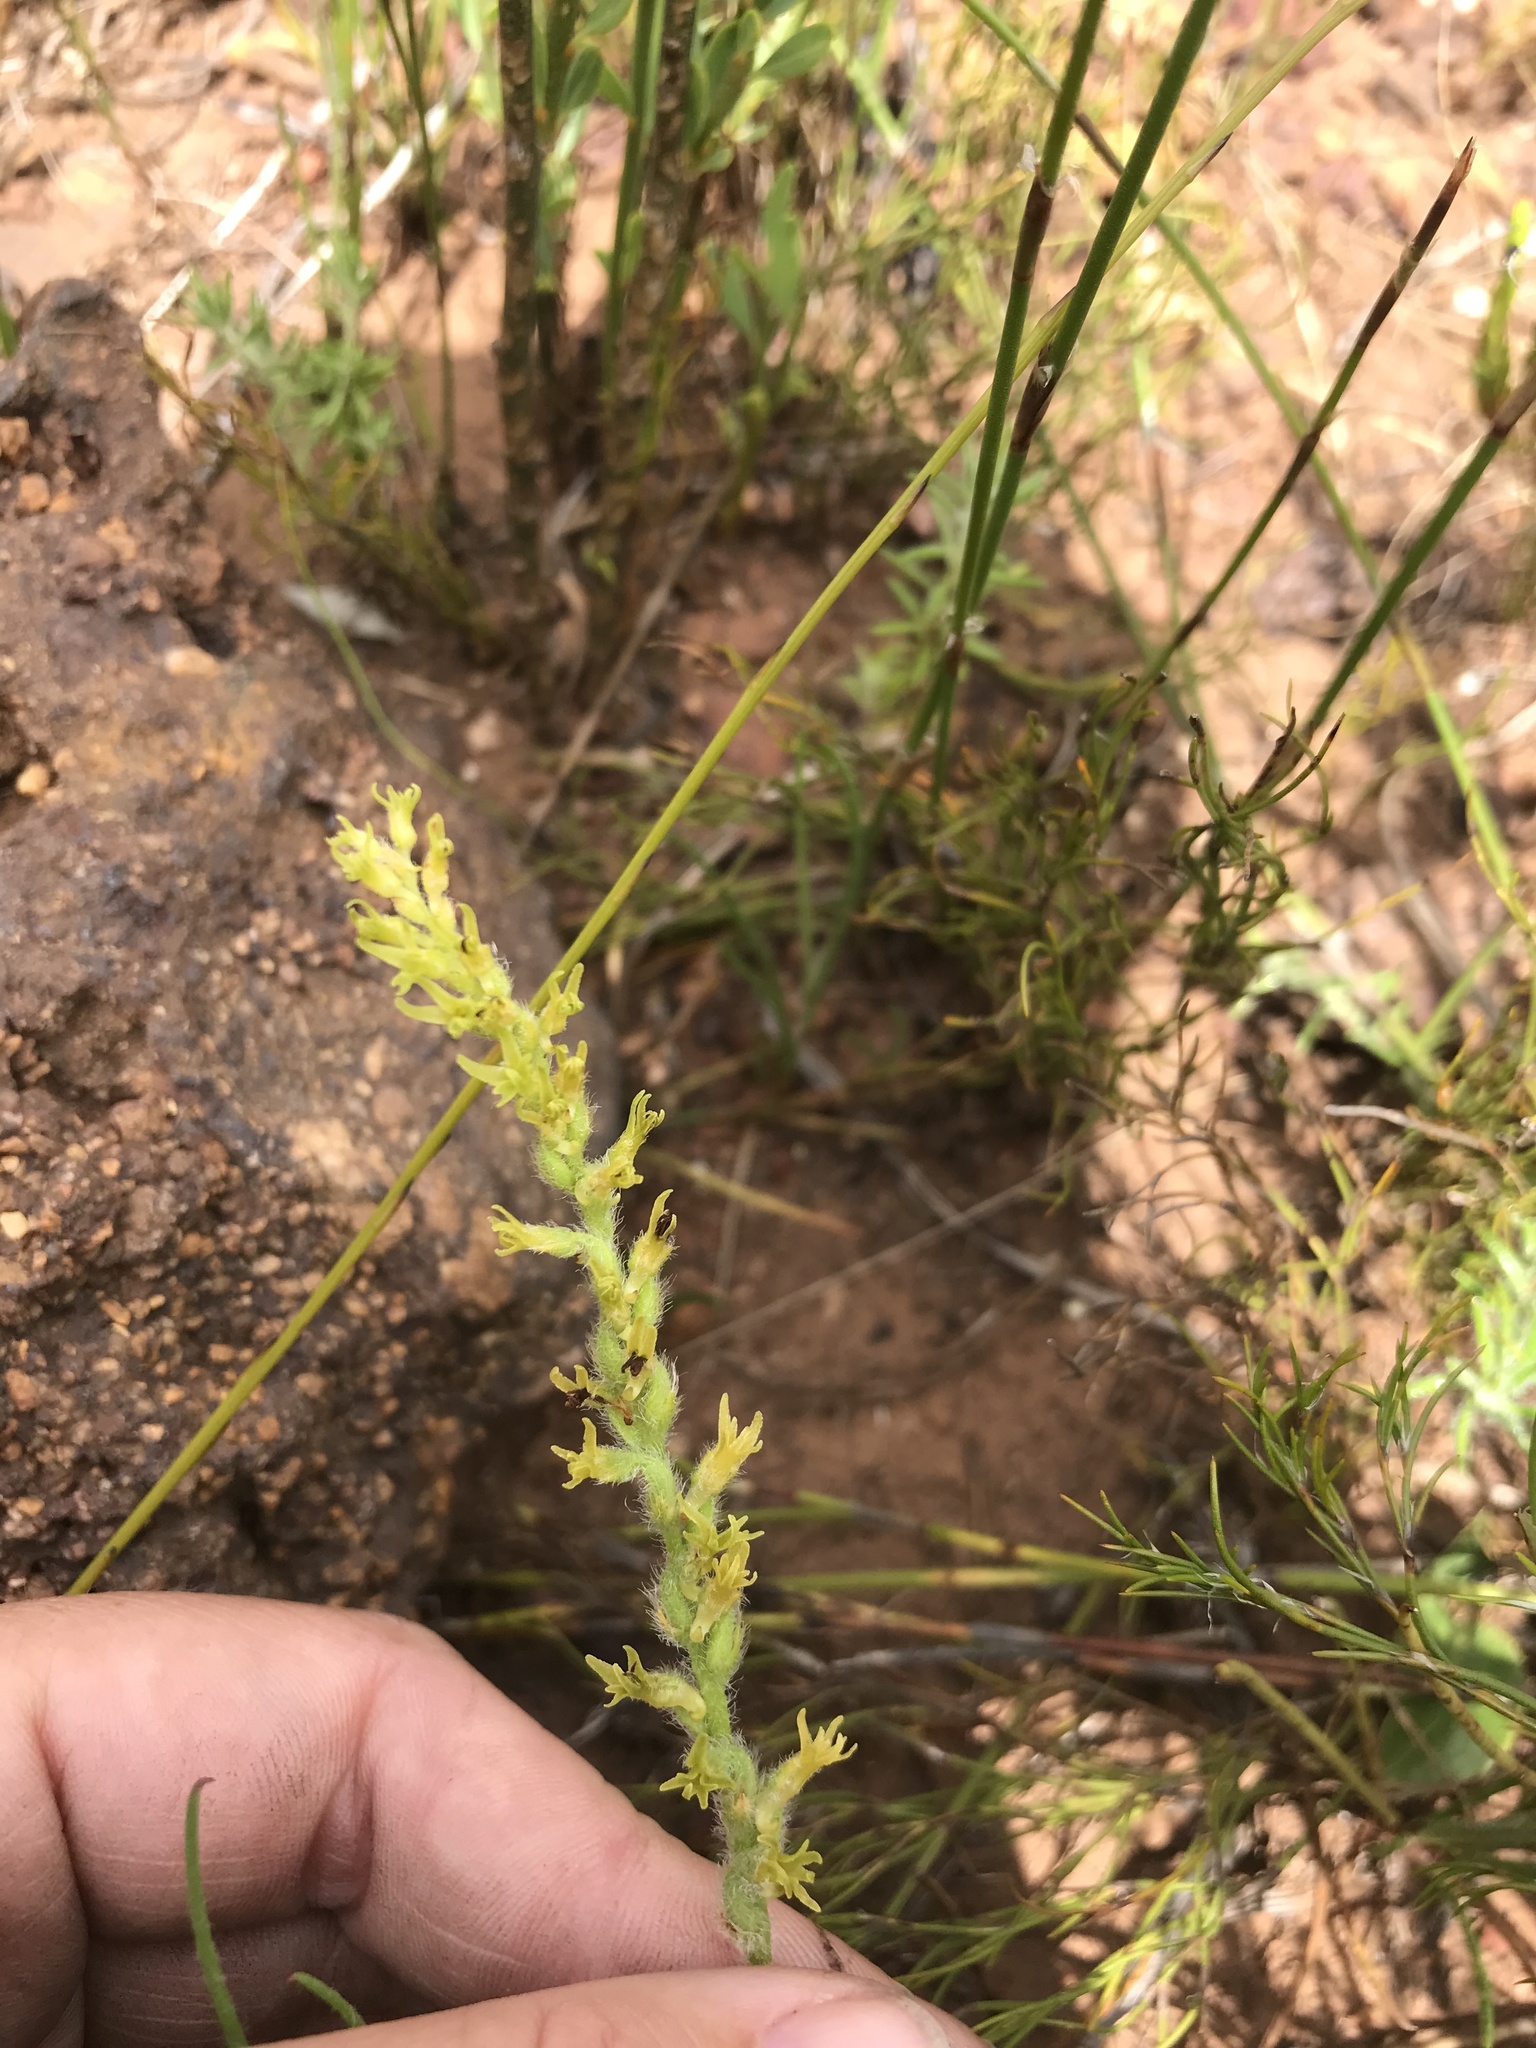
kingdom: Plantae
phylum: Tracheophyta
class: Liliopsida
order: Asparagales
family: Orchidaceae
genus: Holothrix
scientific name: Holothrix villosa
